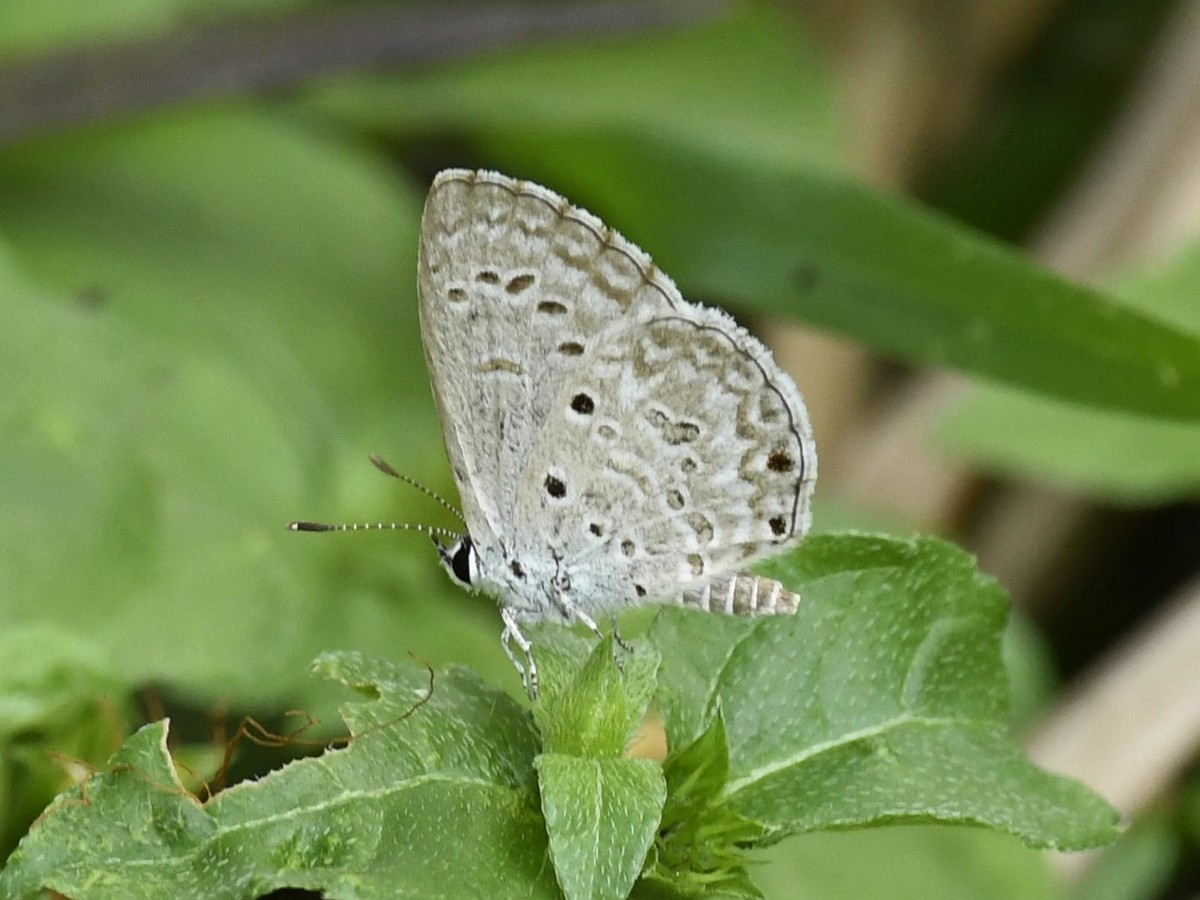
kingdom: Animalia
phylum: Arthropoda
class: Insecta
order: Lepidoptera
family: Lycaenidae
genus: Chilades
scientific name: Chilades laius
